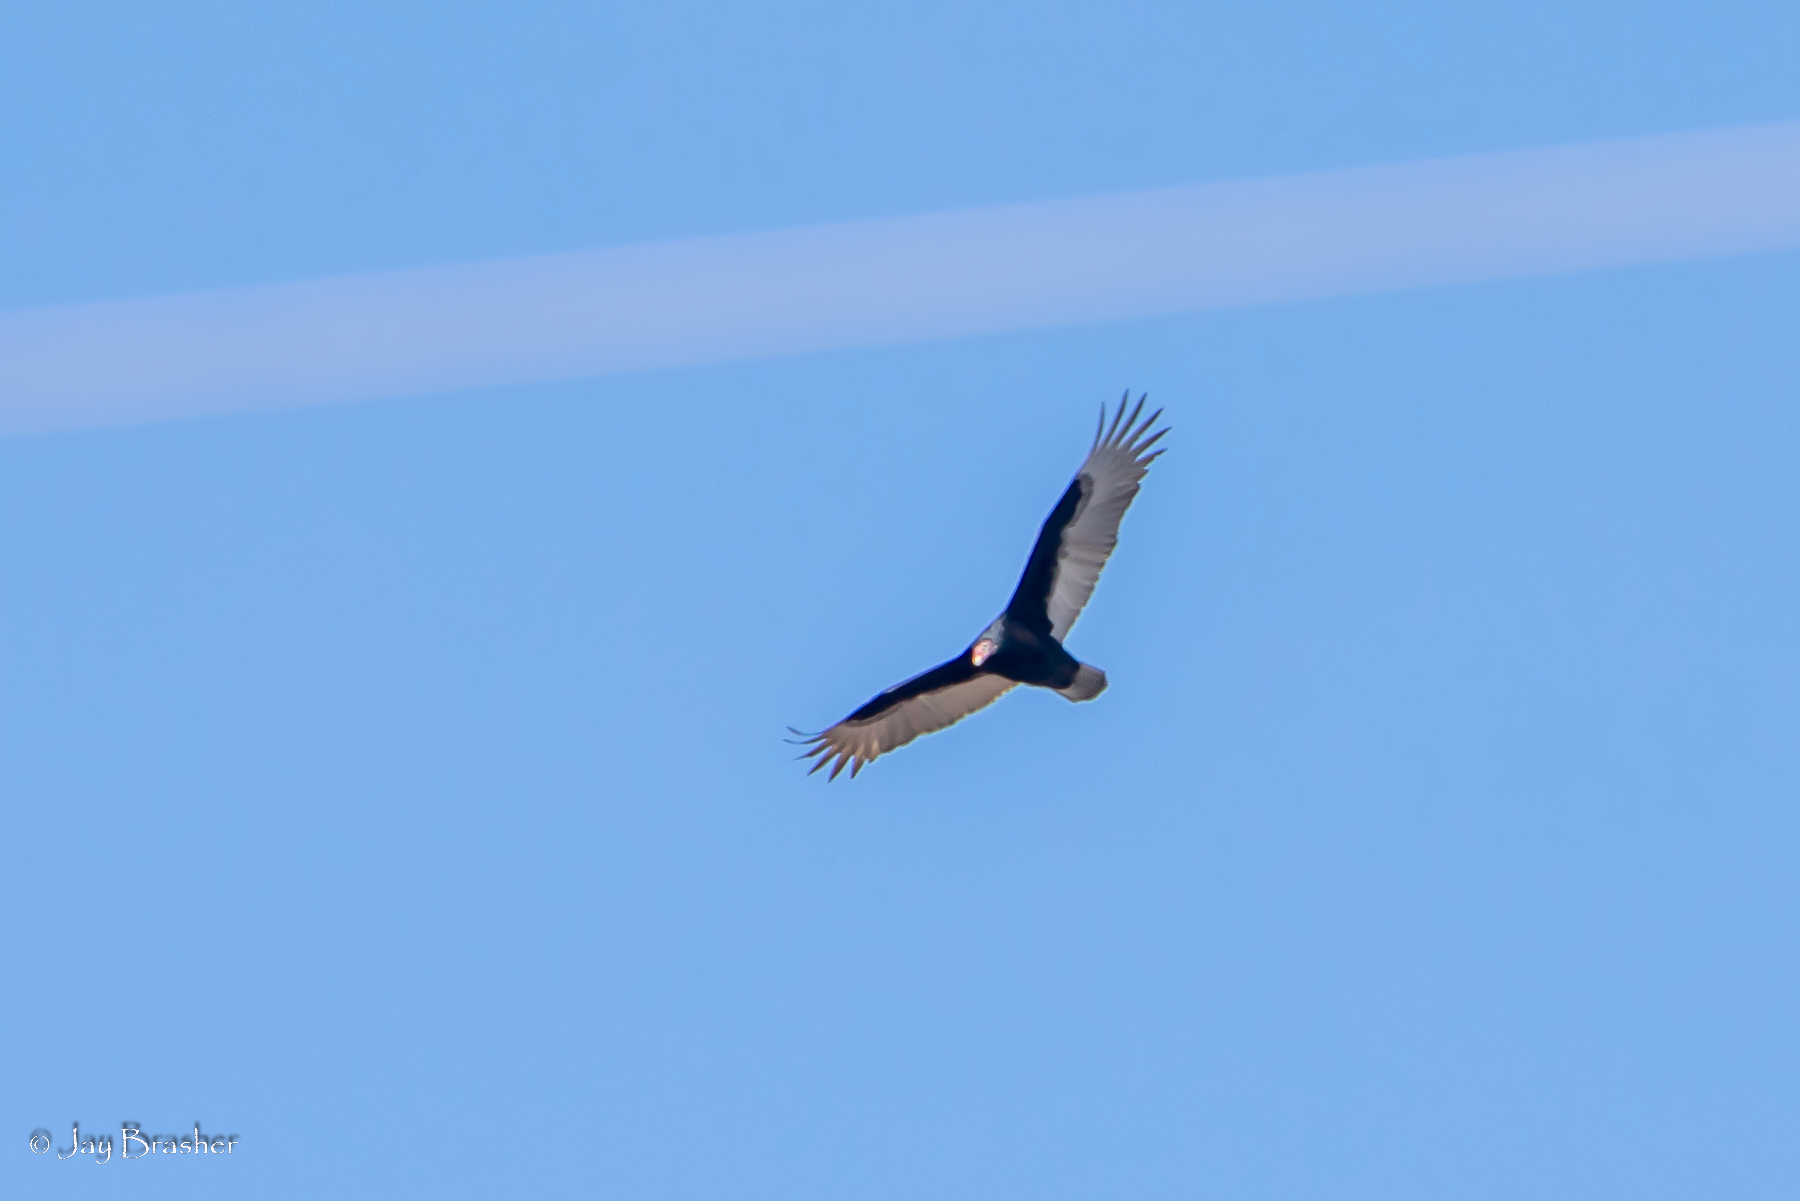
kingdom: Animalia
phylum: Chordata
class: Aves
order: Accipitriformes
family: Cathartidae
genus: Cathartes
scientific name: Cathartes aura
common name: Turkey vulture
